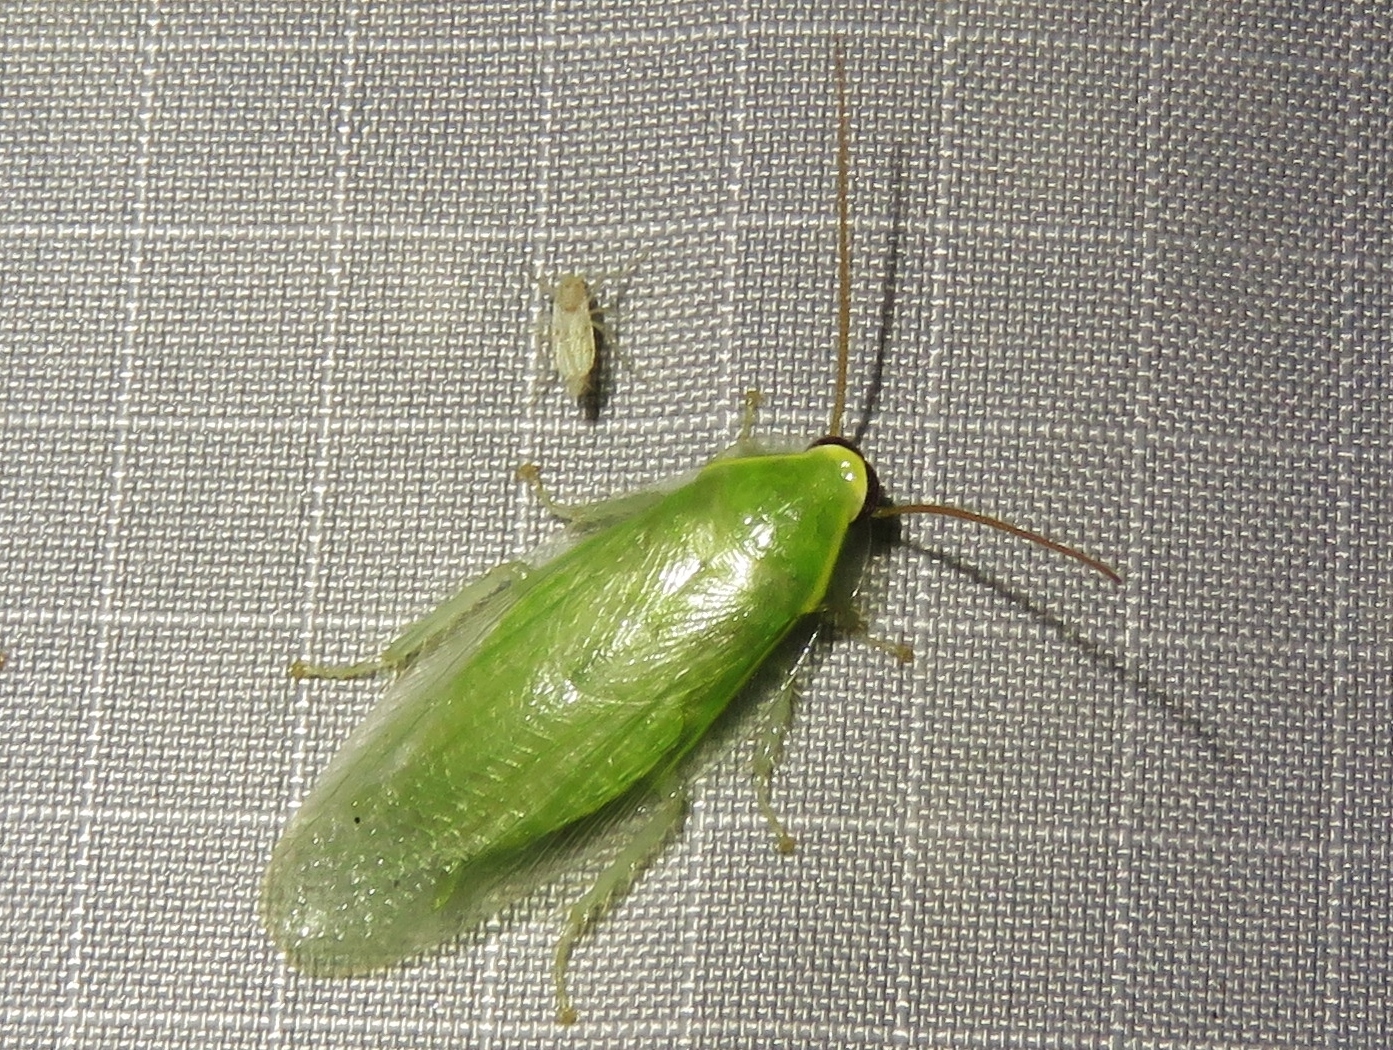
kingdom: Animalia
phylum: Arthropoda
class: Insecta
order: Blattodea
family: Blaberidae
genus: Panchlora
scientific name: Panchlora nivea
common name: Cuban cockroach
